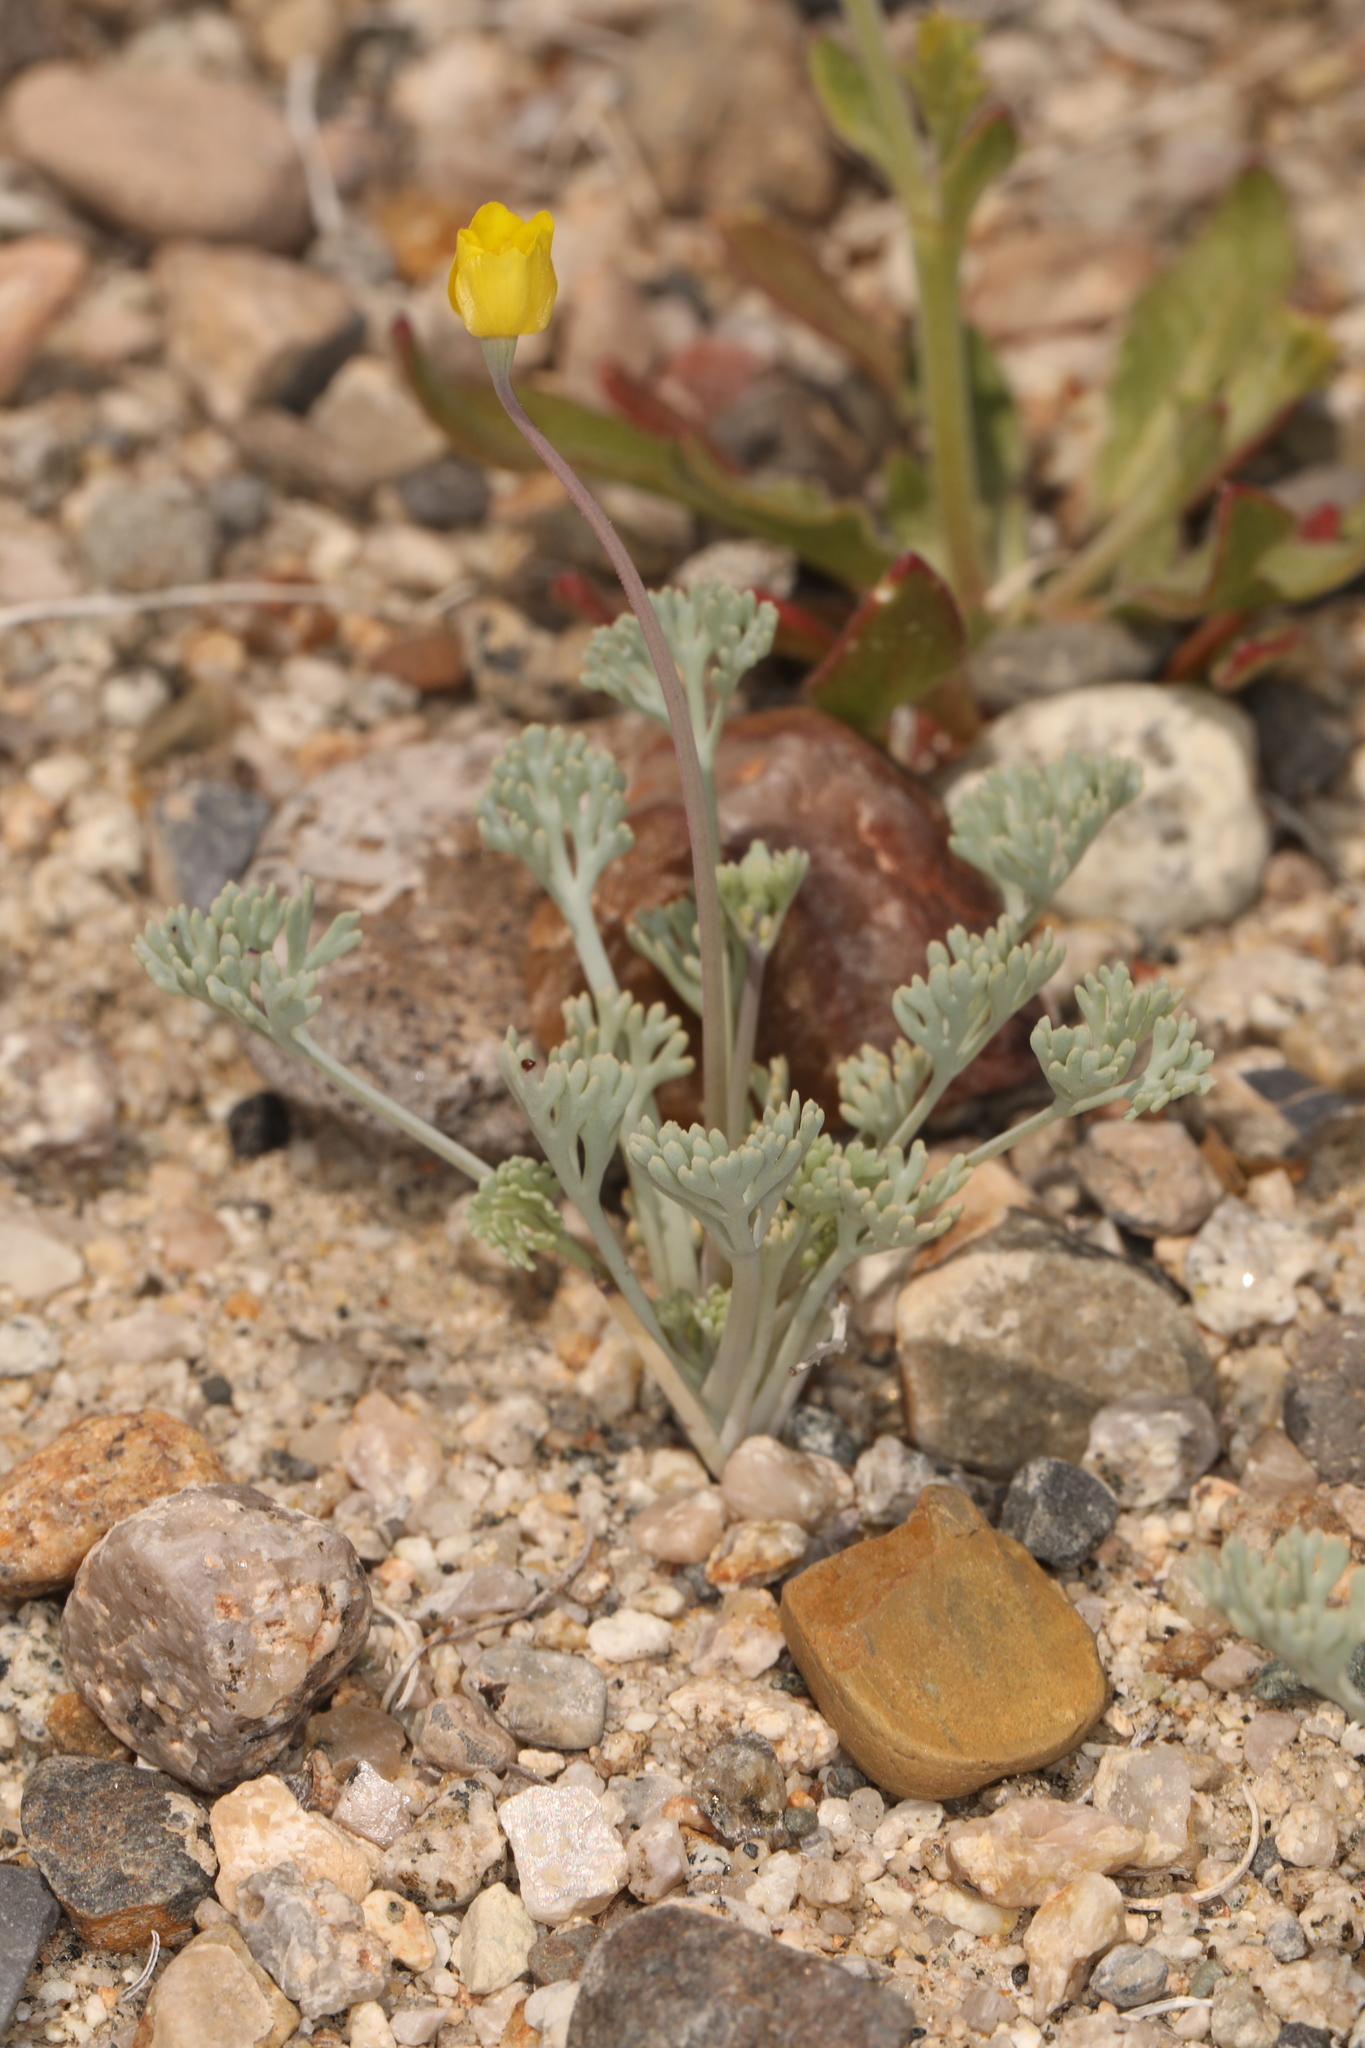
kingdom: Plantae
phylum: Tracheophyta
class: Magnoliopsida
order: Ranunculales
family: Papaveraceae
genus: Eschscholzia
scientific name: Eschscholzia minutiflora
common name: Small-flower california-poppy
